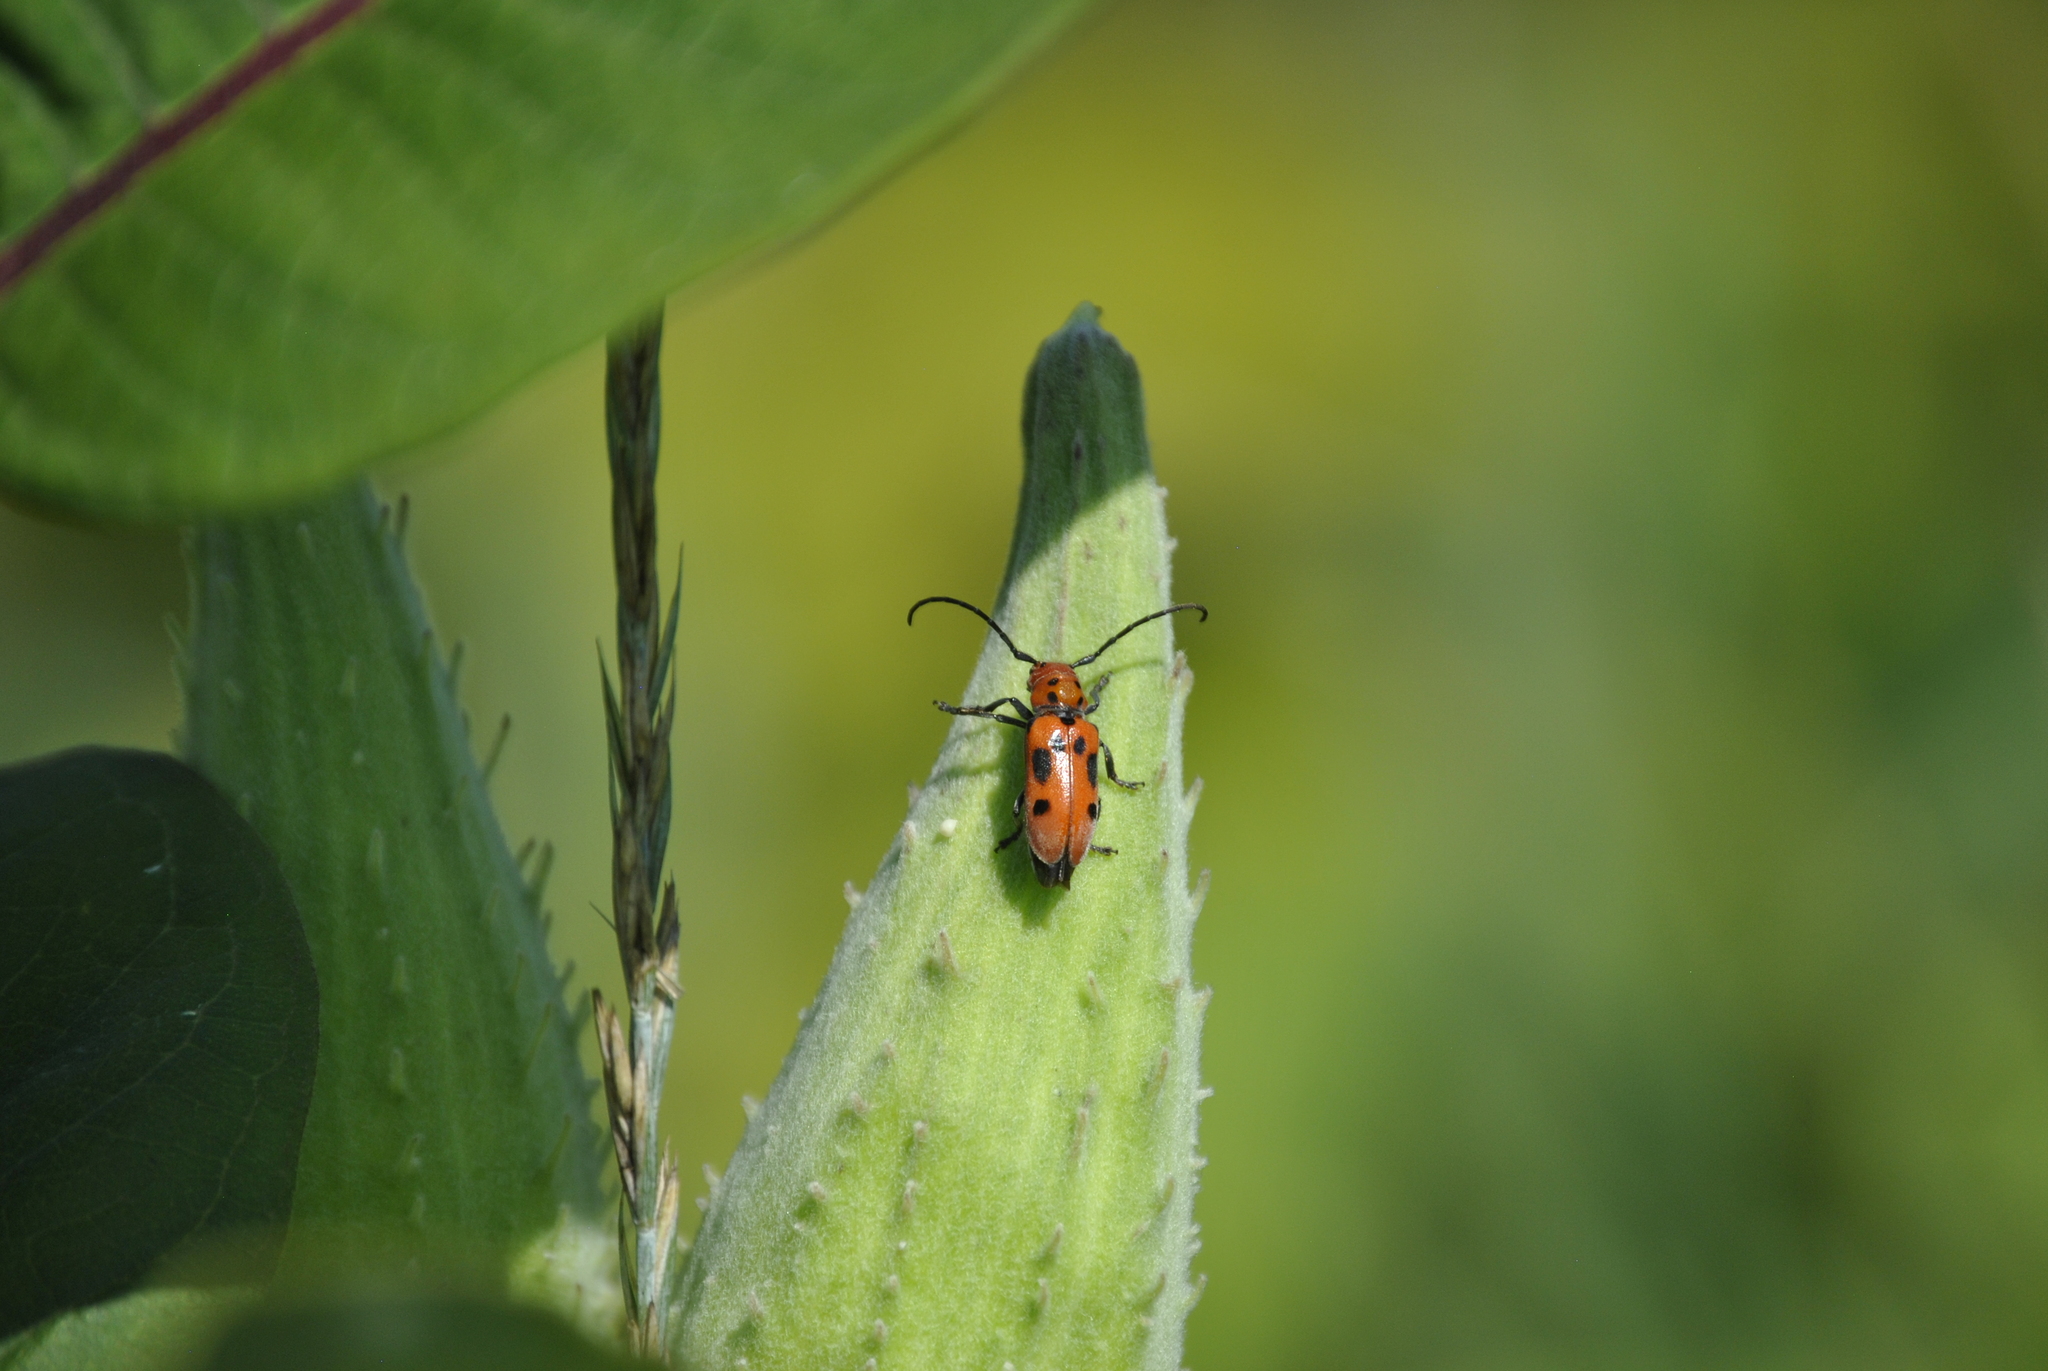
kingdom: Animalia
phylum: Arthropoda
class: Insecta
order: Coleoptera
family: Cerambycidae
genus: Tetraopes
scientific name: Tetraopes tetrophthalmus
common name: Red milkweed beetle
